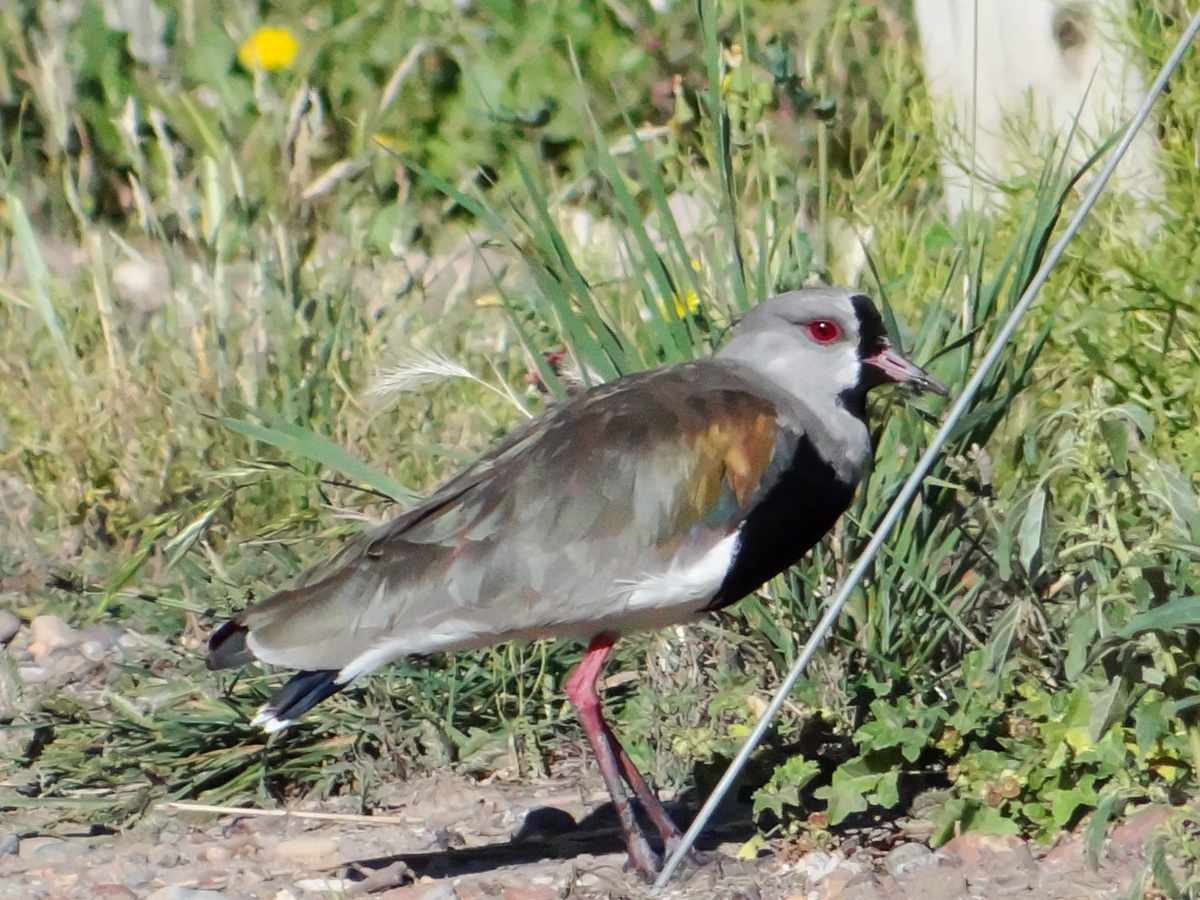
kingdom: Animalia
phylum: Chordata
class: Aves
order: Charadriiformes
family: Charadriidae
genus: Vanellus
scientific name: Vanellus chilensis
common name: Southern lapwing
